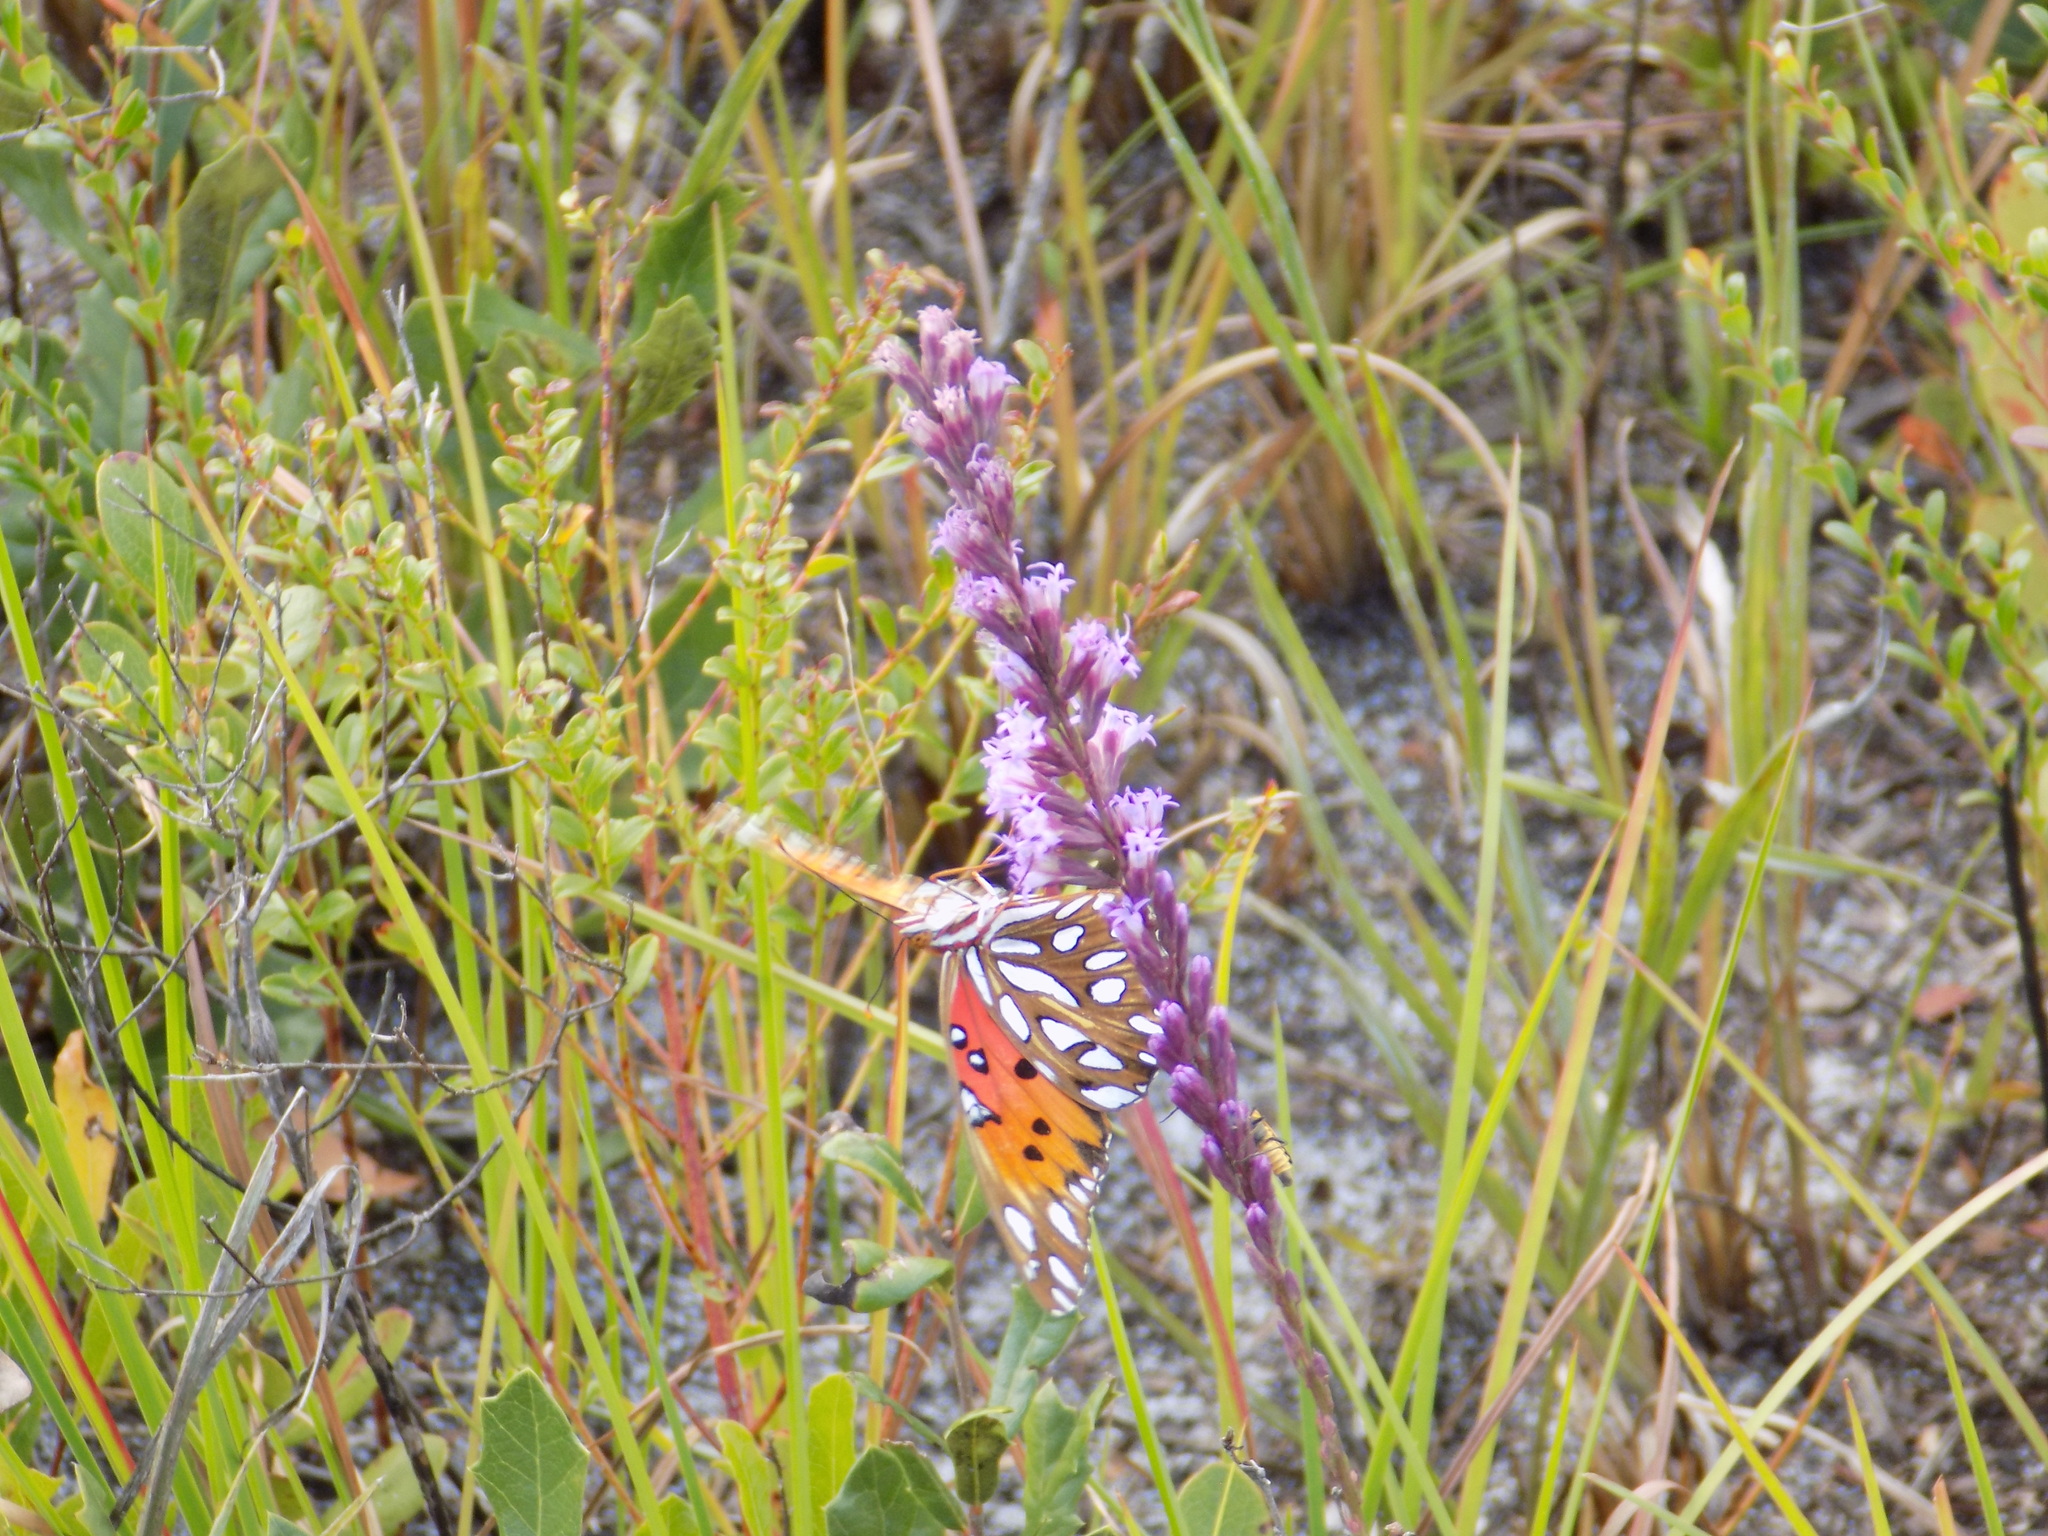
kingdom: Animalia
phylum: Arthropoda
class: Insecta
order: Lepidoptera
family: Nymphalidae
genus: Dione
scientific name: Dione vanillae
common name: Gulf fritillary
